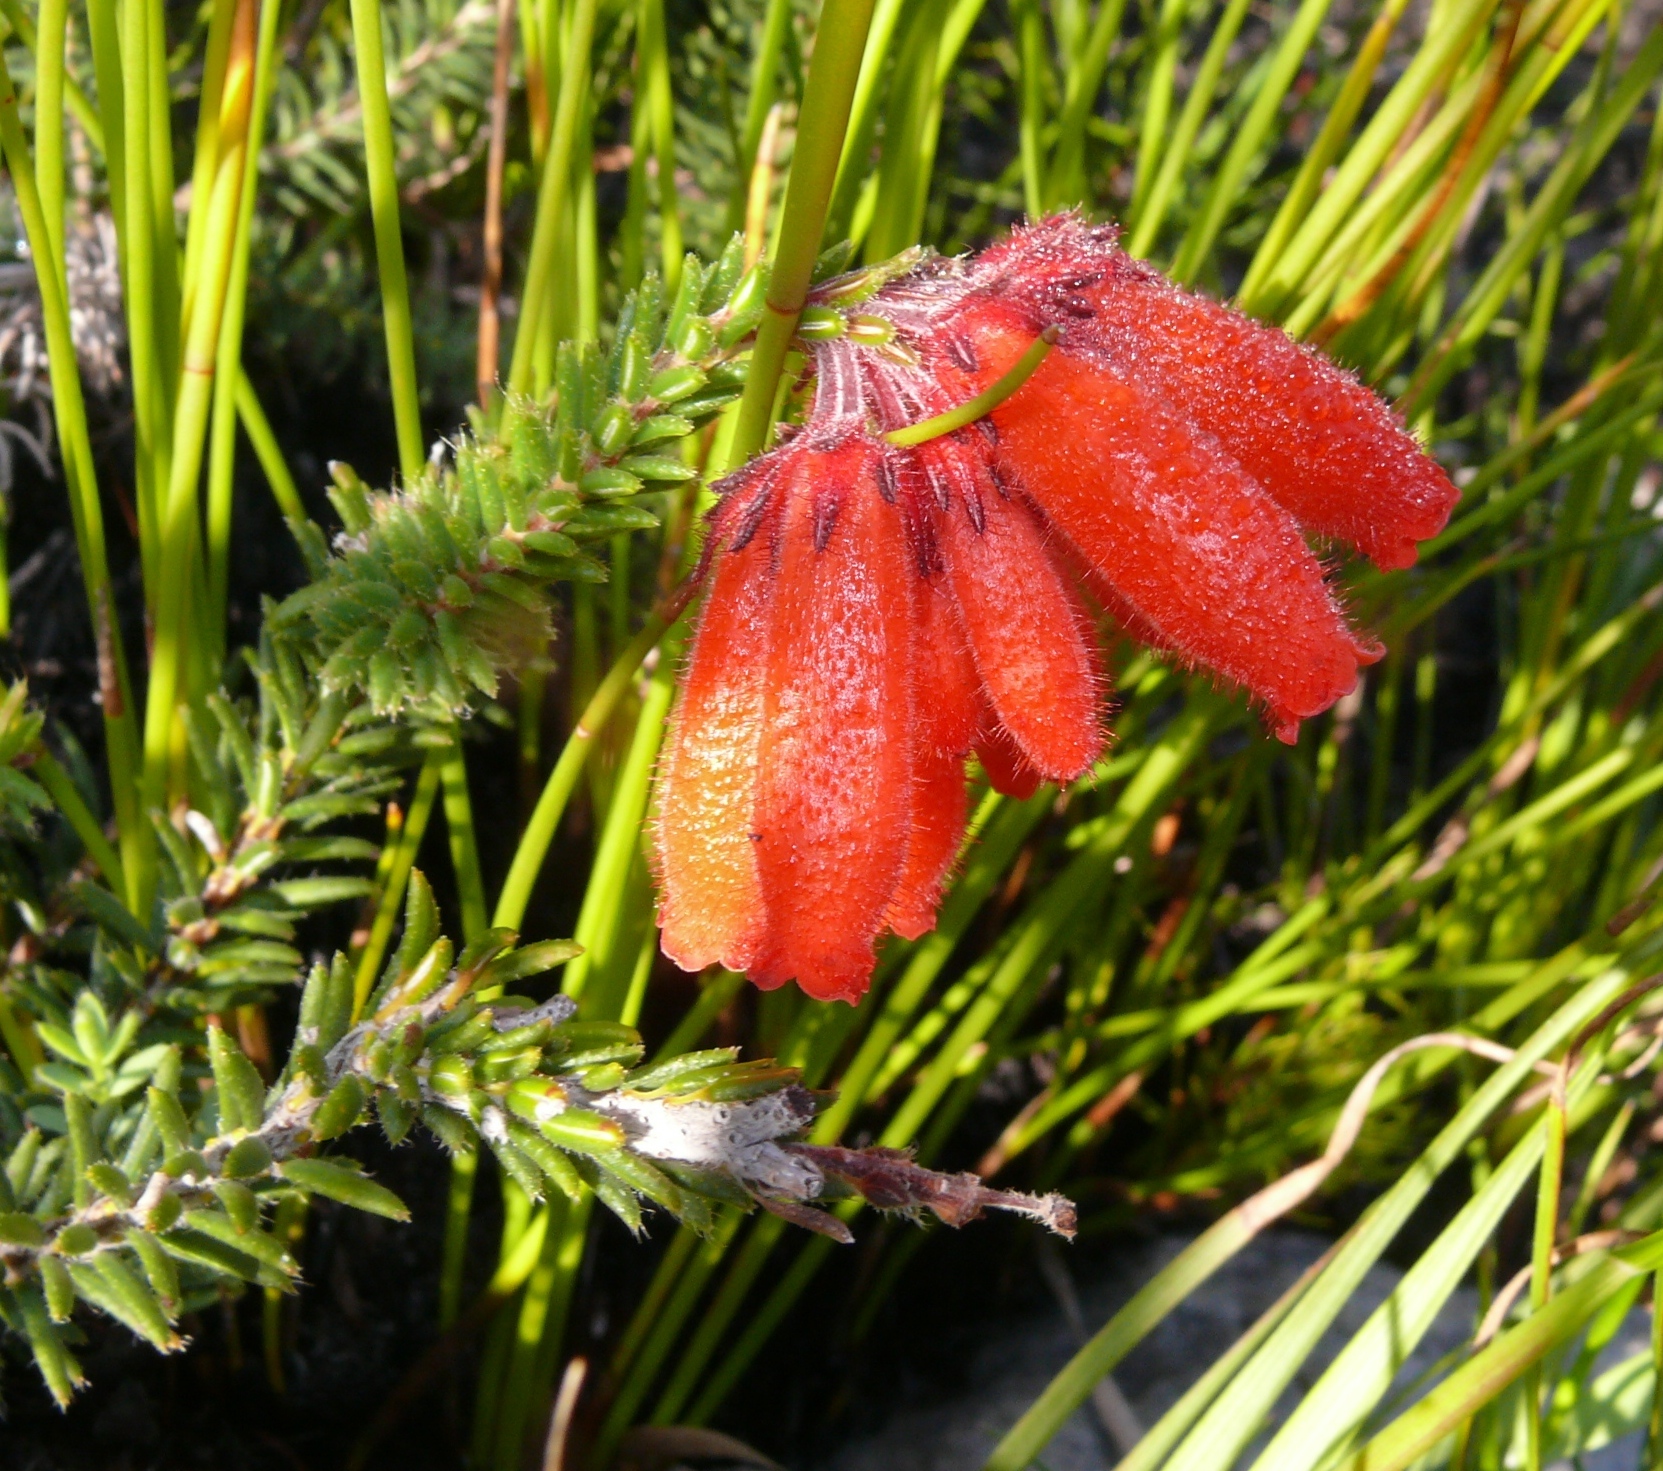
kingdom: Plantae
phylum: Tracheophyta
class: Magnoliopsida
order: Ericales
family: Ericaceae
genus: Erica
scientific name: Erica cerinthoides
